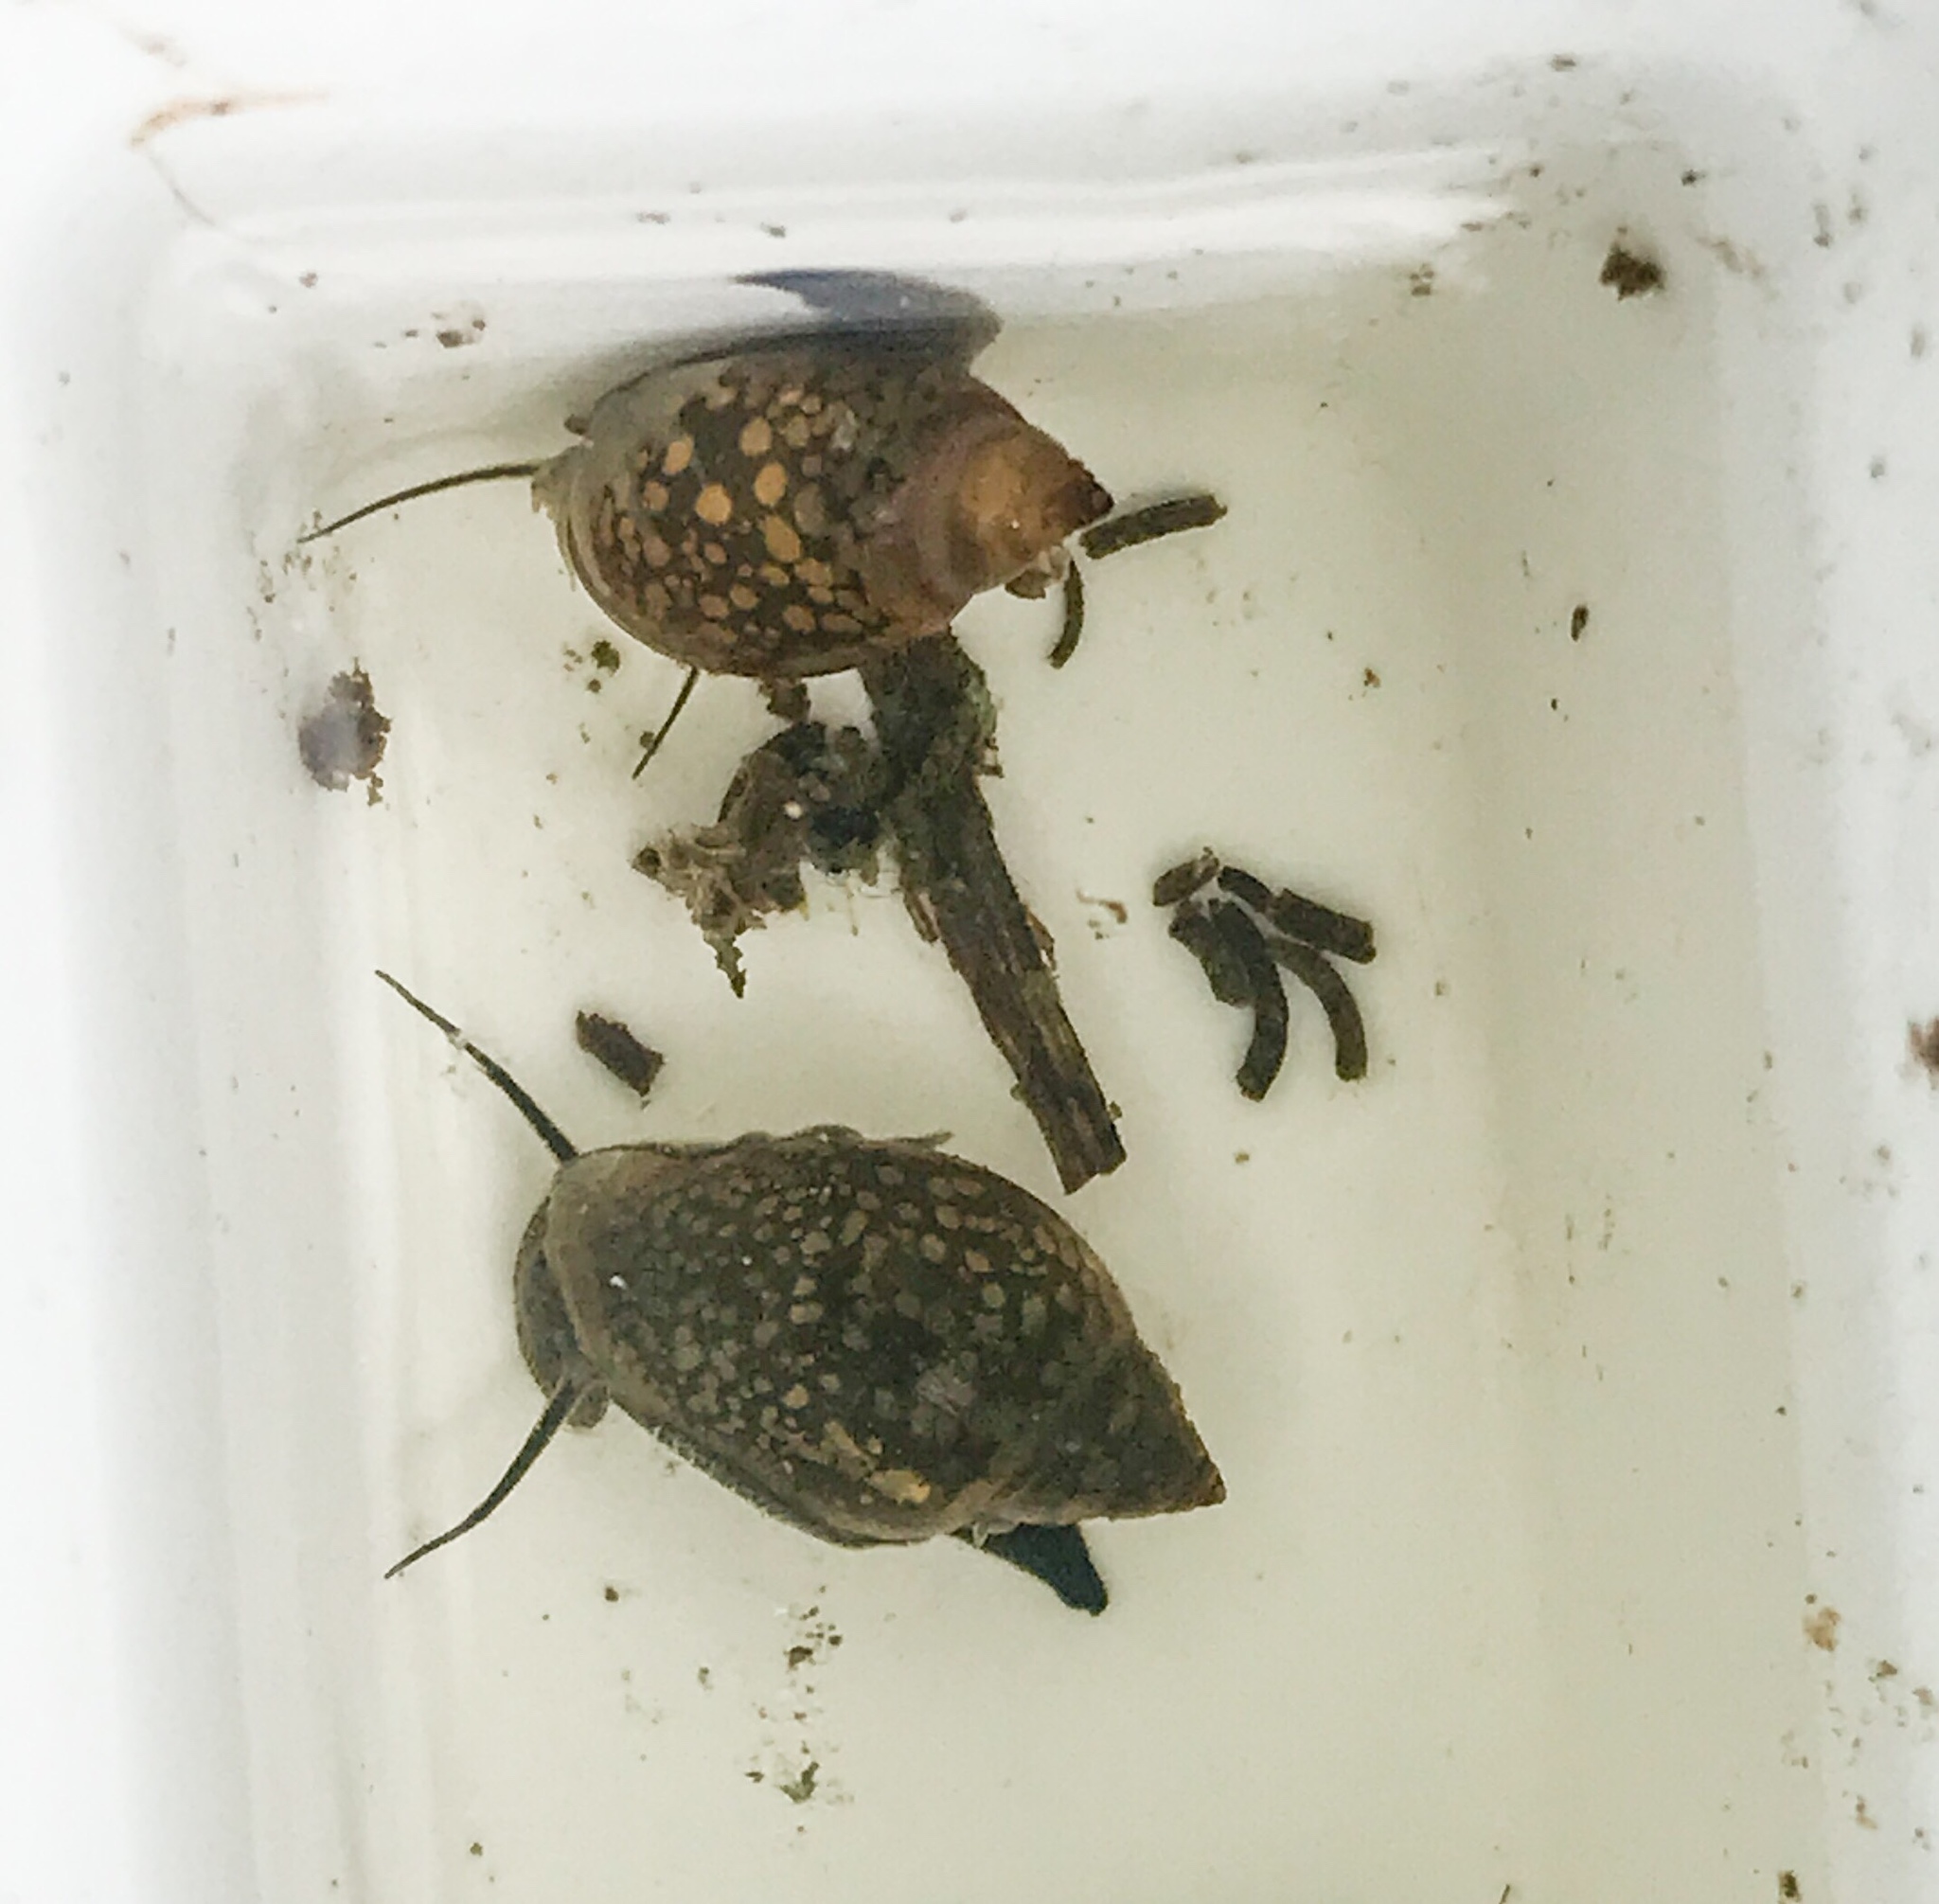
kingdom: Animalia
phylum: Mollusca
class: Gastropoda
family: Physidae
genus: Physella
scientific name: Physella acuta
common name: European physa
